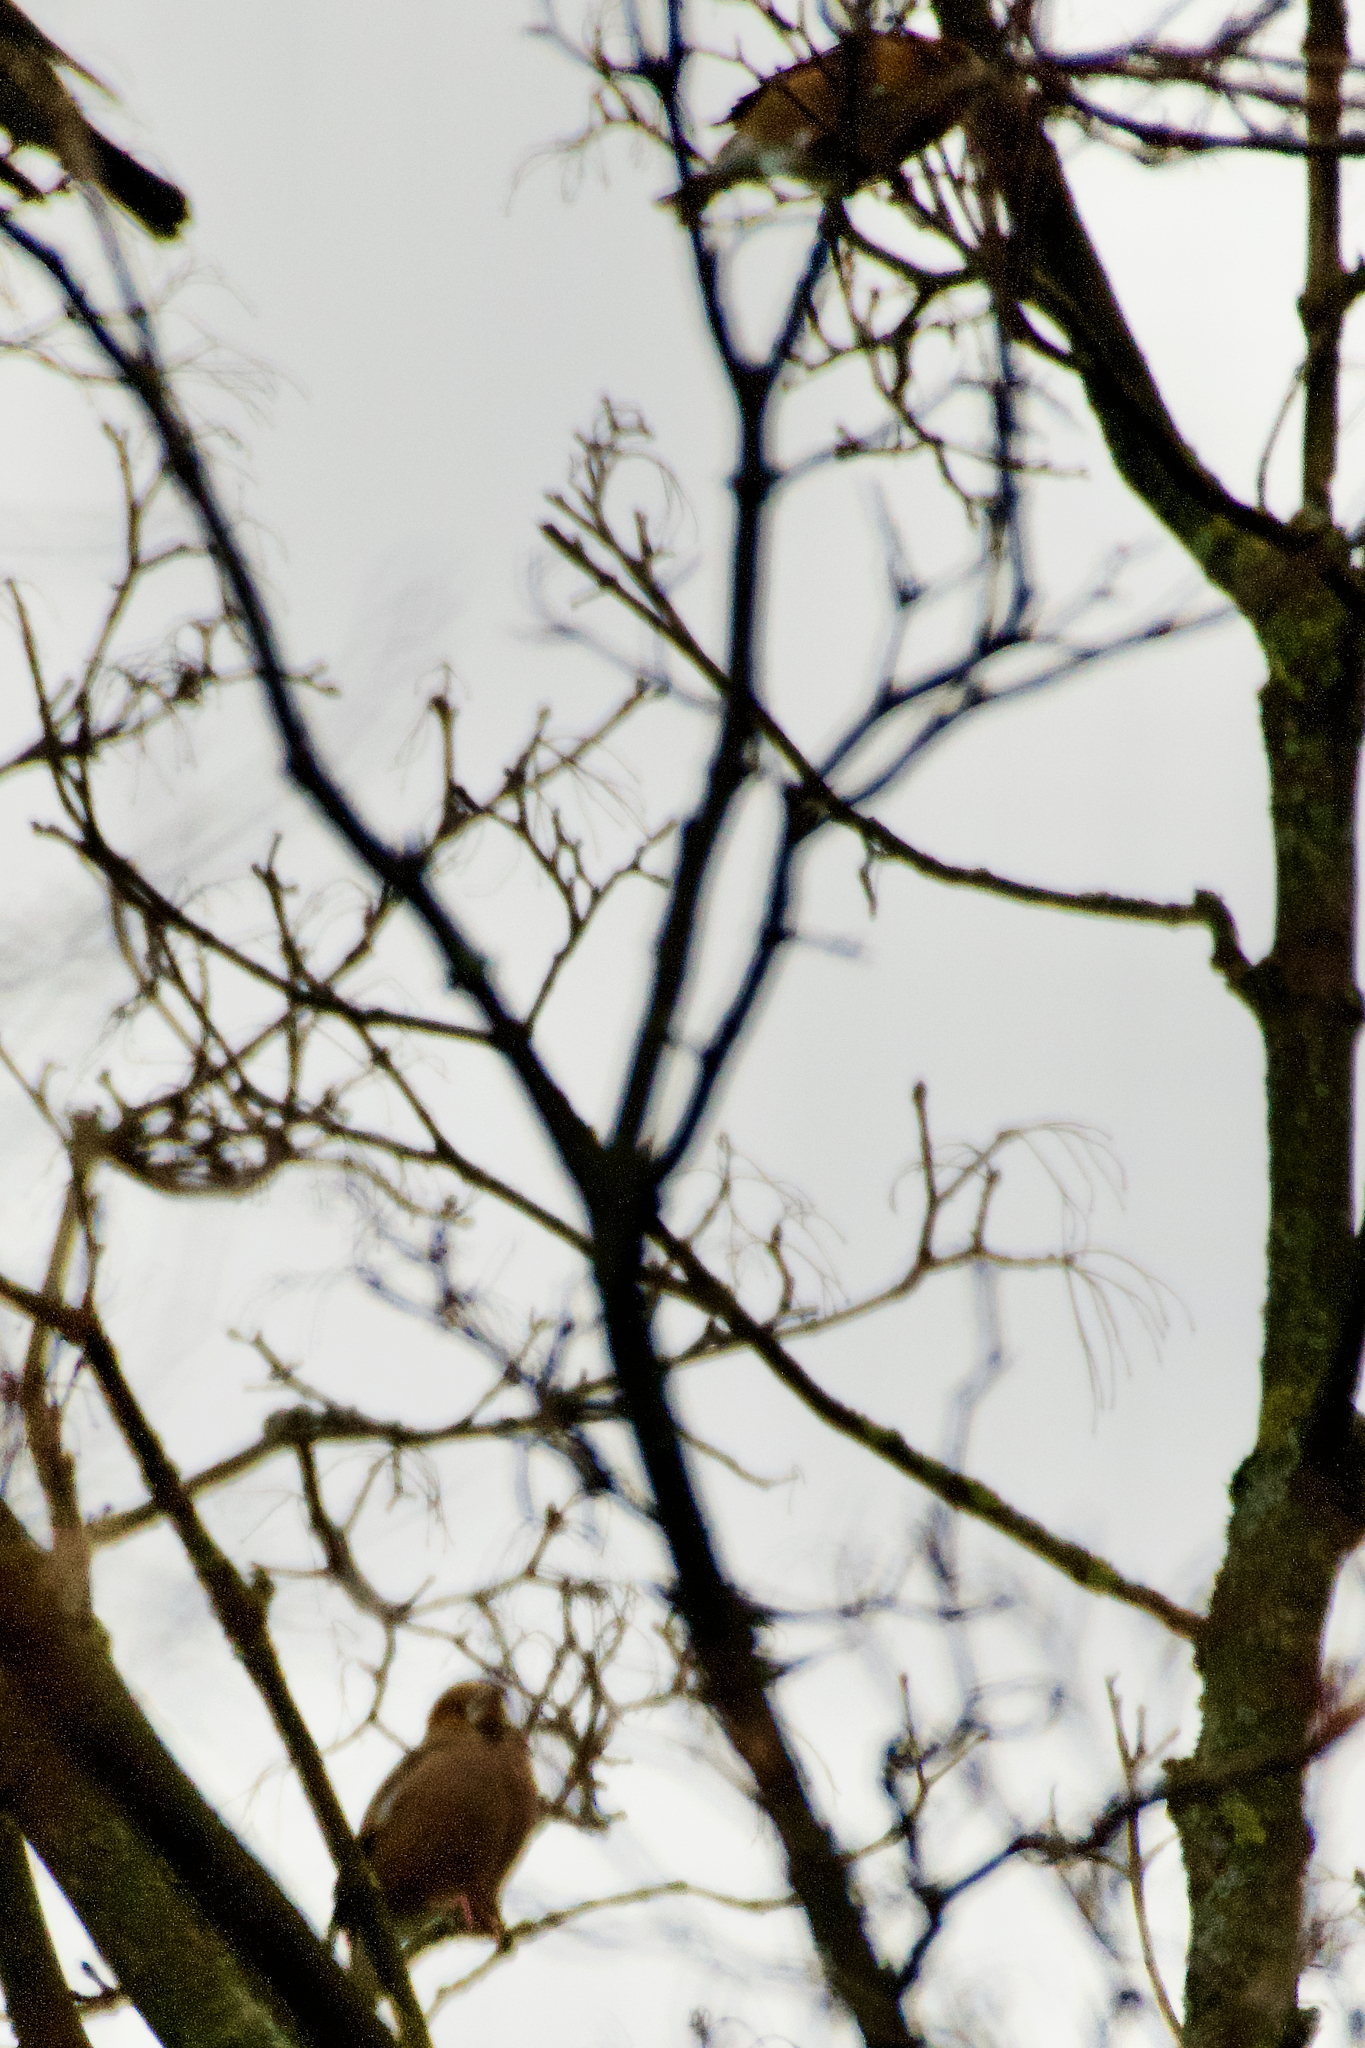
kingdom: Animalia
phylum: Chordata
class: Aves
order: Passeriformes
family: Fringillidae
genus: Coccothraustes
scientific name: Coccothraustes coccothraustes
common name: Hawfinch
